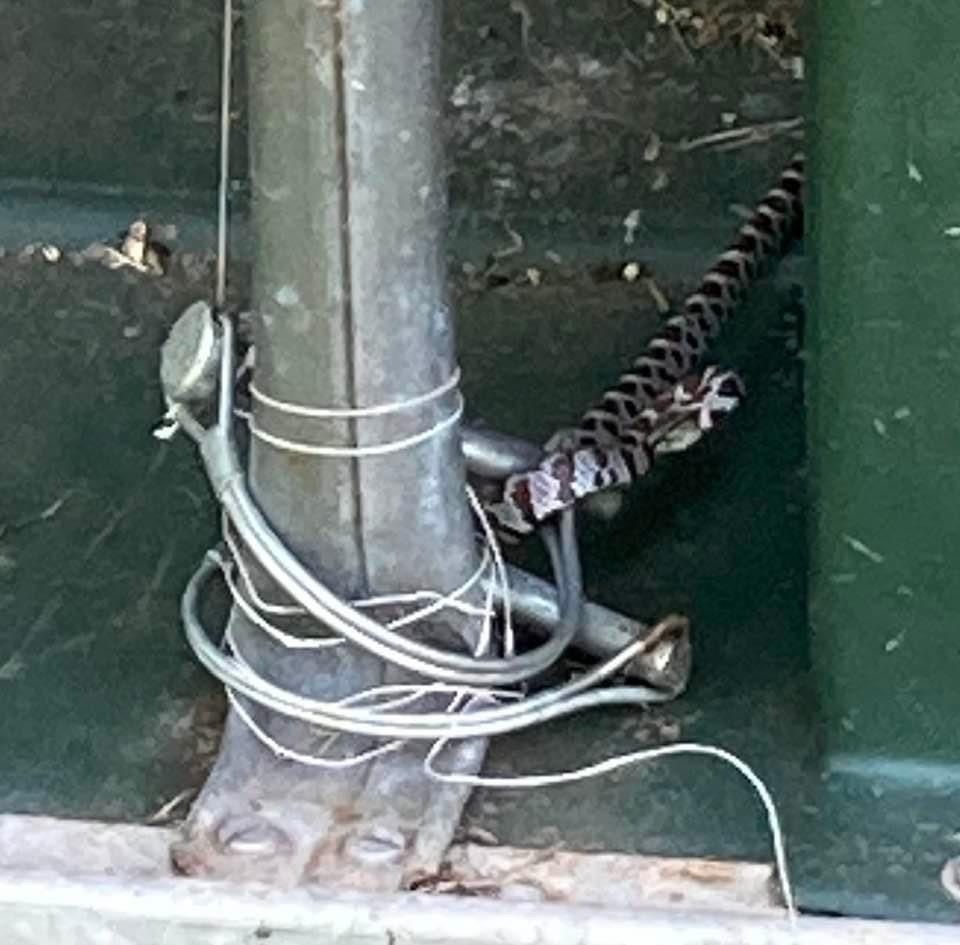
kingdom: Animalia
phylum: Chordata
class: Squamata
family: Colubridae
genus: Lampropeltis
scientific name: Lampropeltis triangulum
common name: Eastern milksnake
